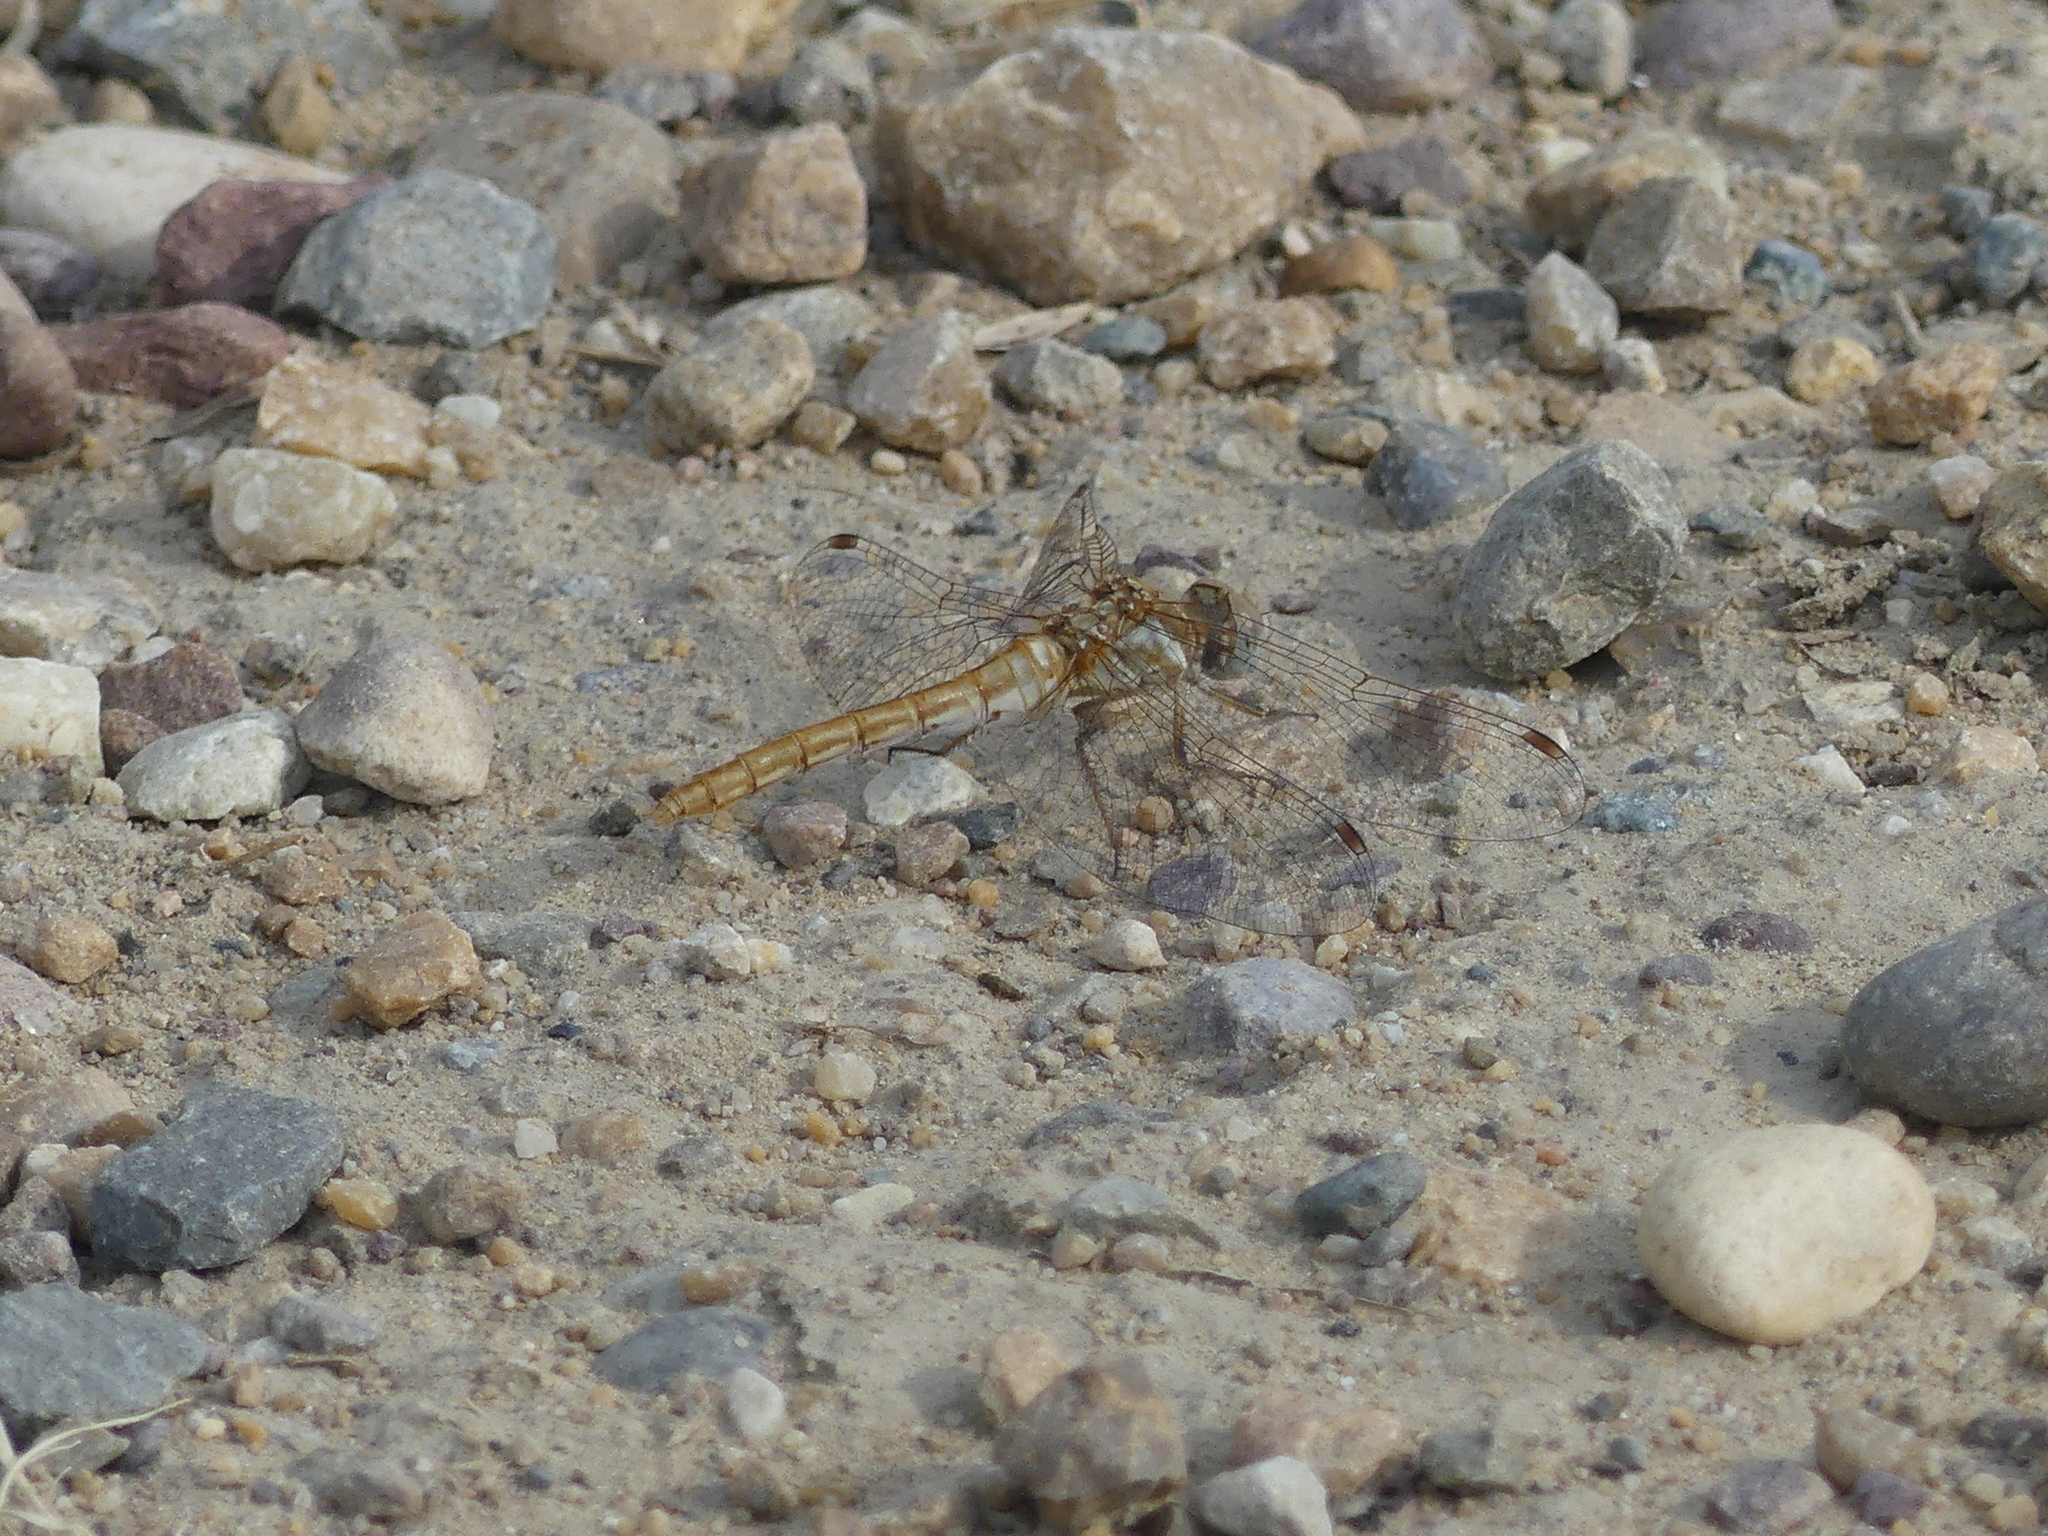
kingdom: Animalia
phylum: Arthropoda
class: Insecta
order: Odonata
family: Libellulidae
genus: Sympetrum
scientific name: Sympetrum corruptum
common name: Variegated meadowhawk
